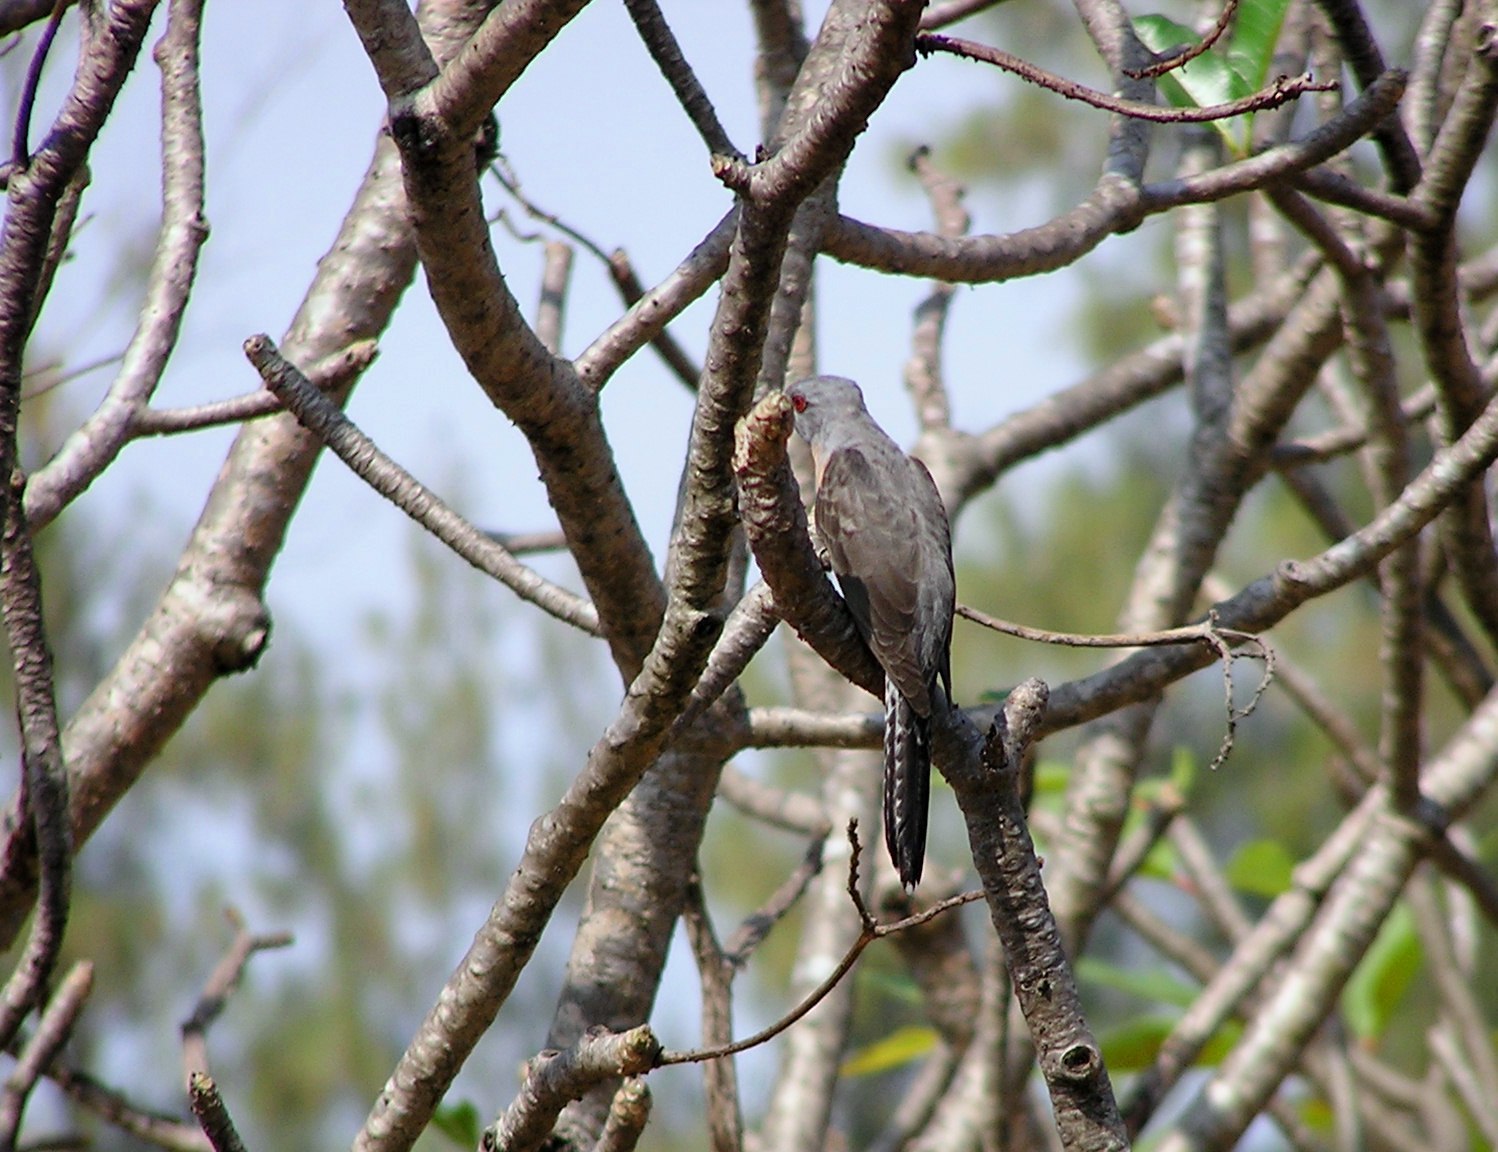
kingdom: Animalia
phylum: Chordata
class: Aves
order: Cuculiformes
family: Cuculidae
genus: Cacomantis
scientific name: Cacomantis merulinus
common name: Plaintive cuckoo
